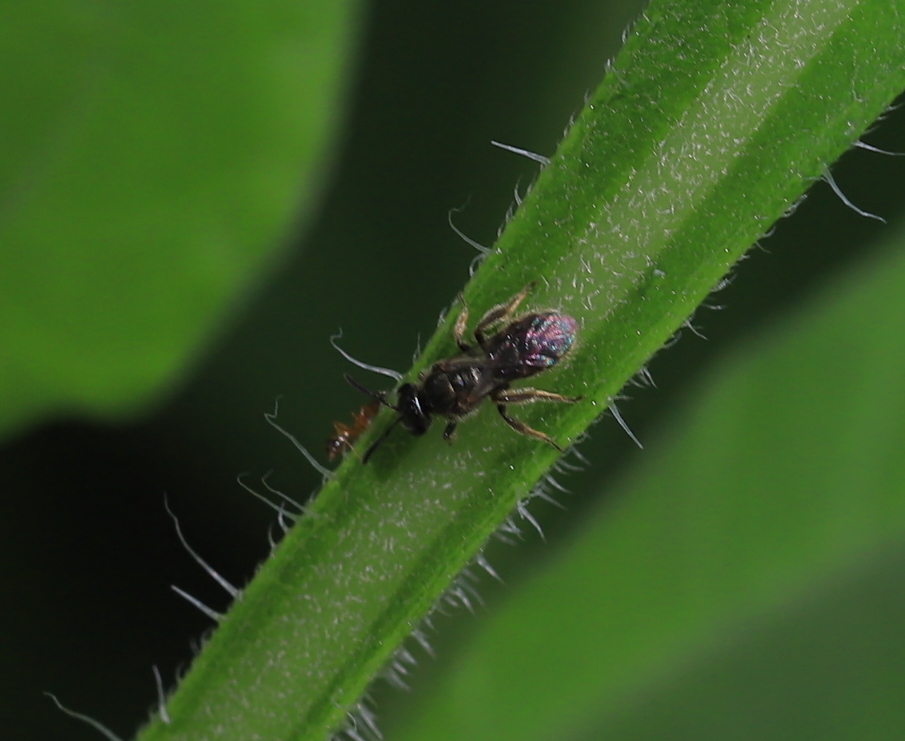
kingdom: Animalia
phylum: Arthropoda
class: Insecta
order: Hymenoptera
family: Halictidae
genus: Dialictus
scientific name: Dialictus
